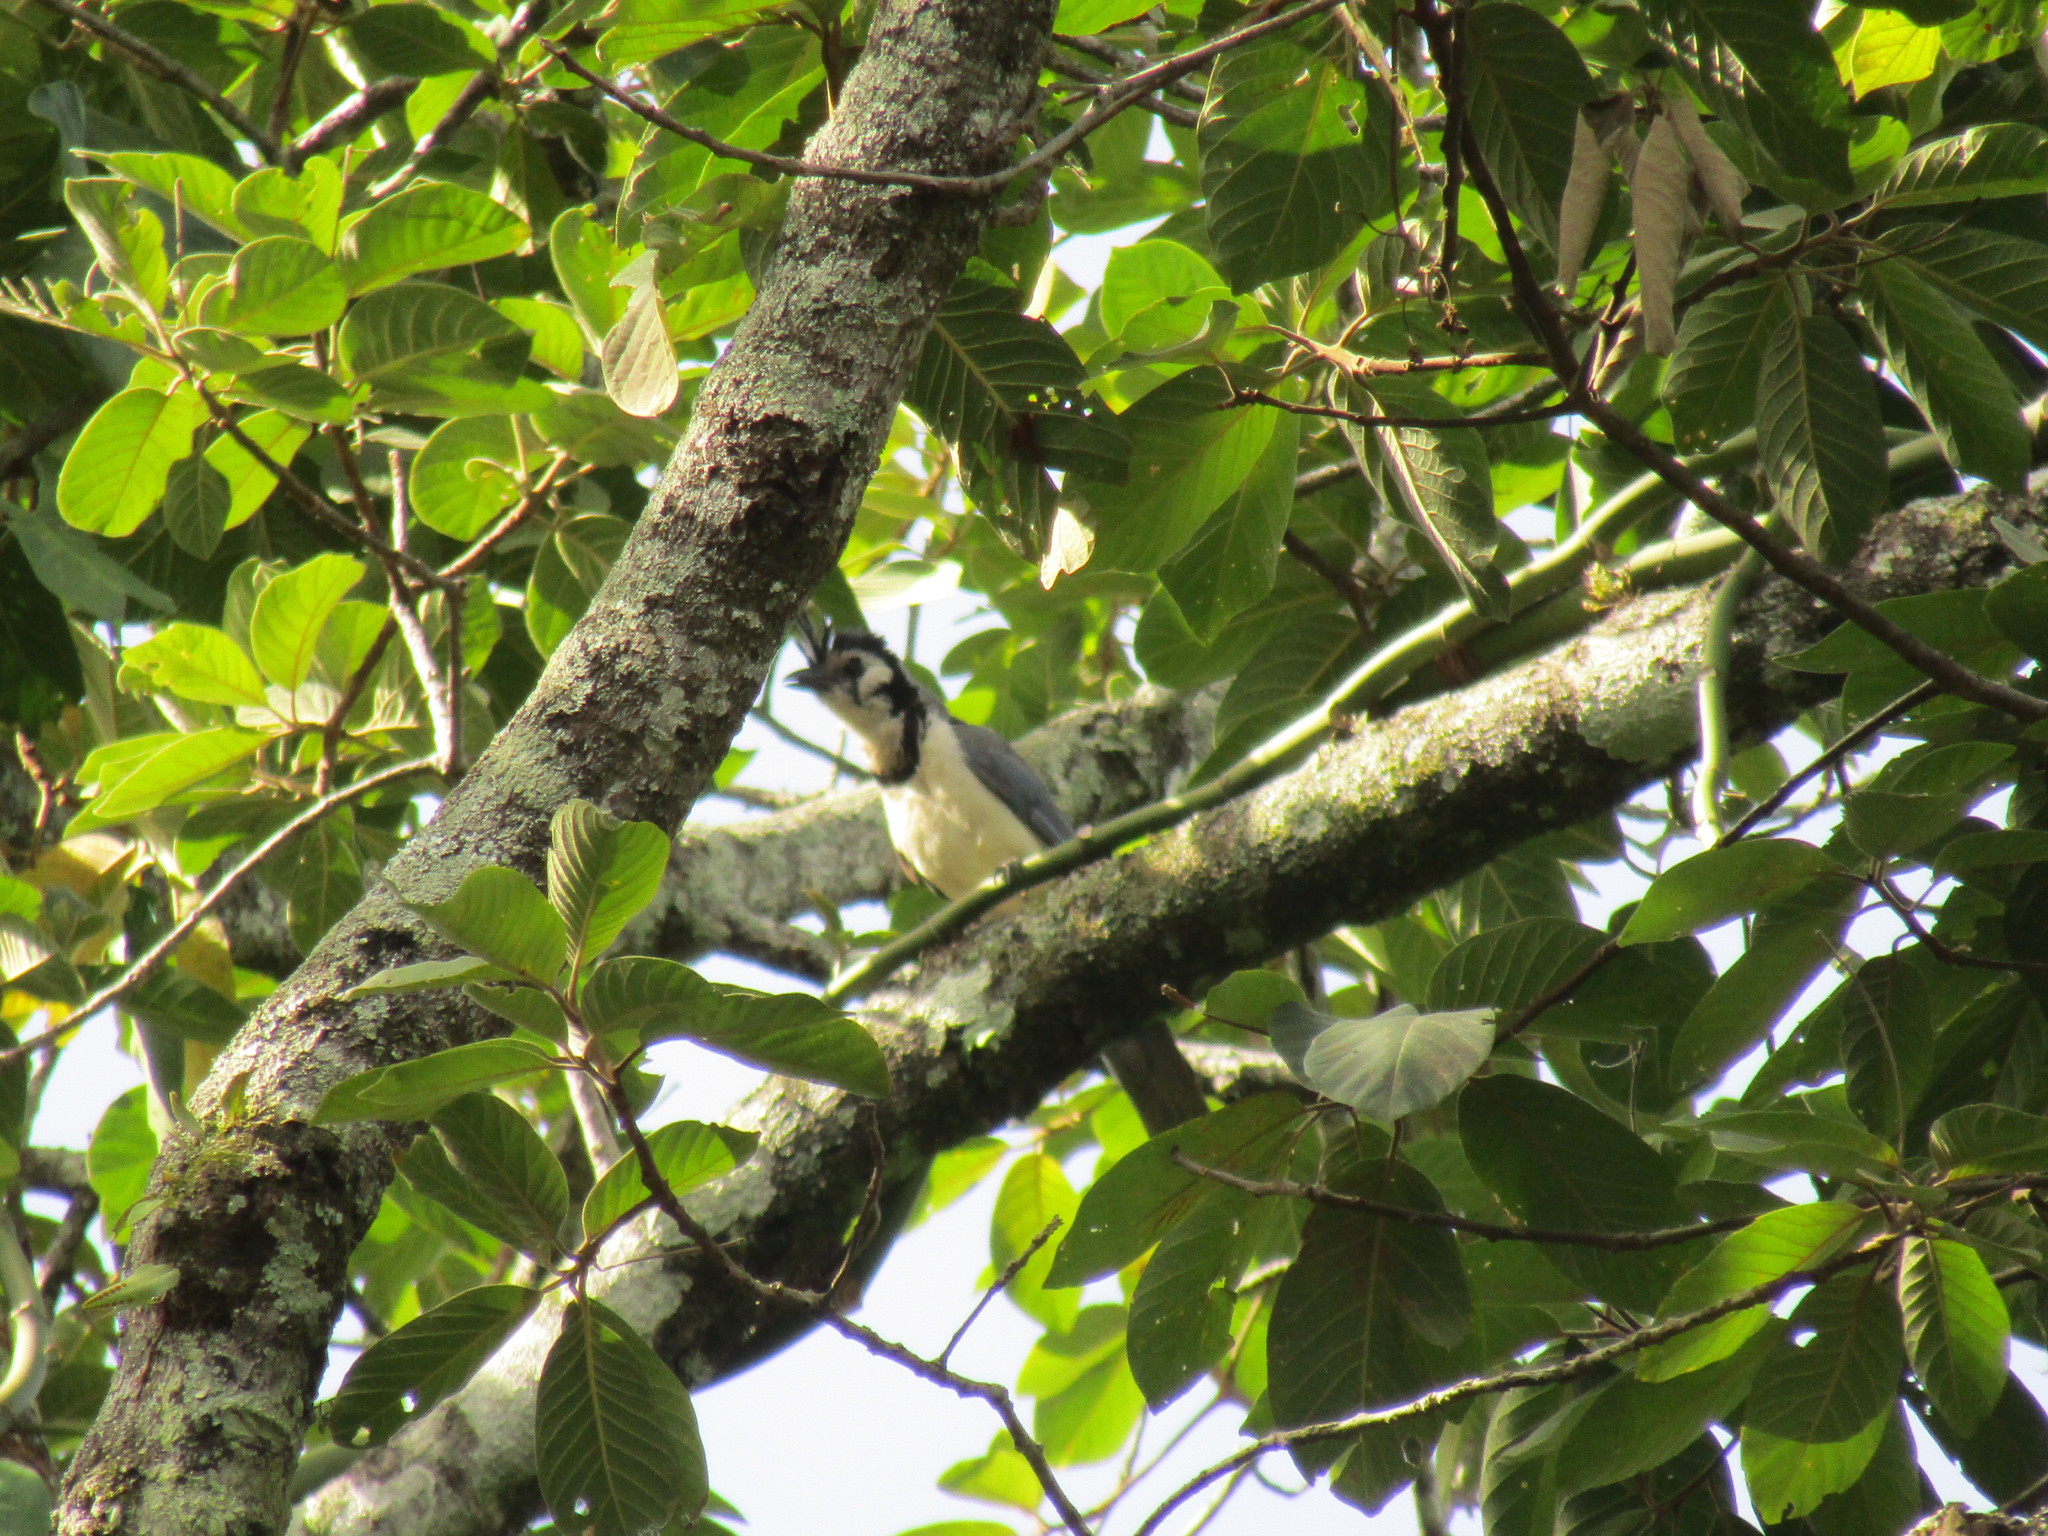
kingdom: Animalia
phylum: Chordata
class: Aves
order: Passeriformes
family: Corvidae
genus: Calocitta
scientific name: Calocitta formosa
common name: White-throated magpie-jay
